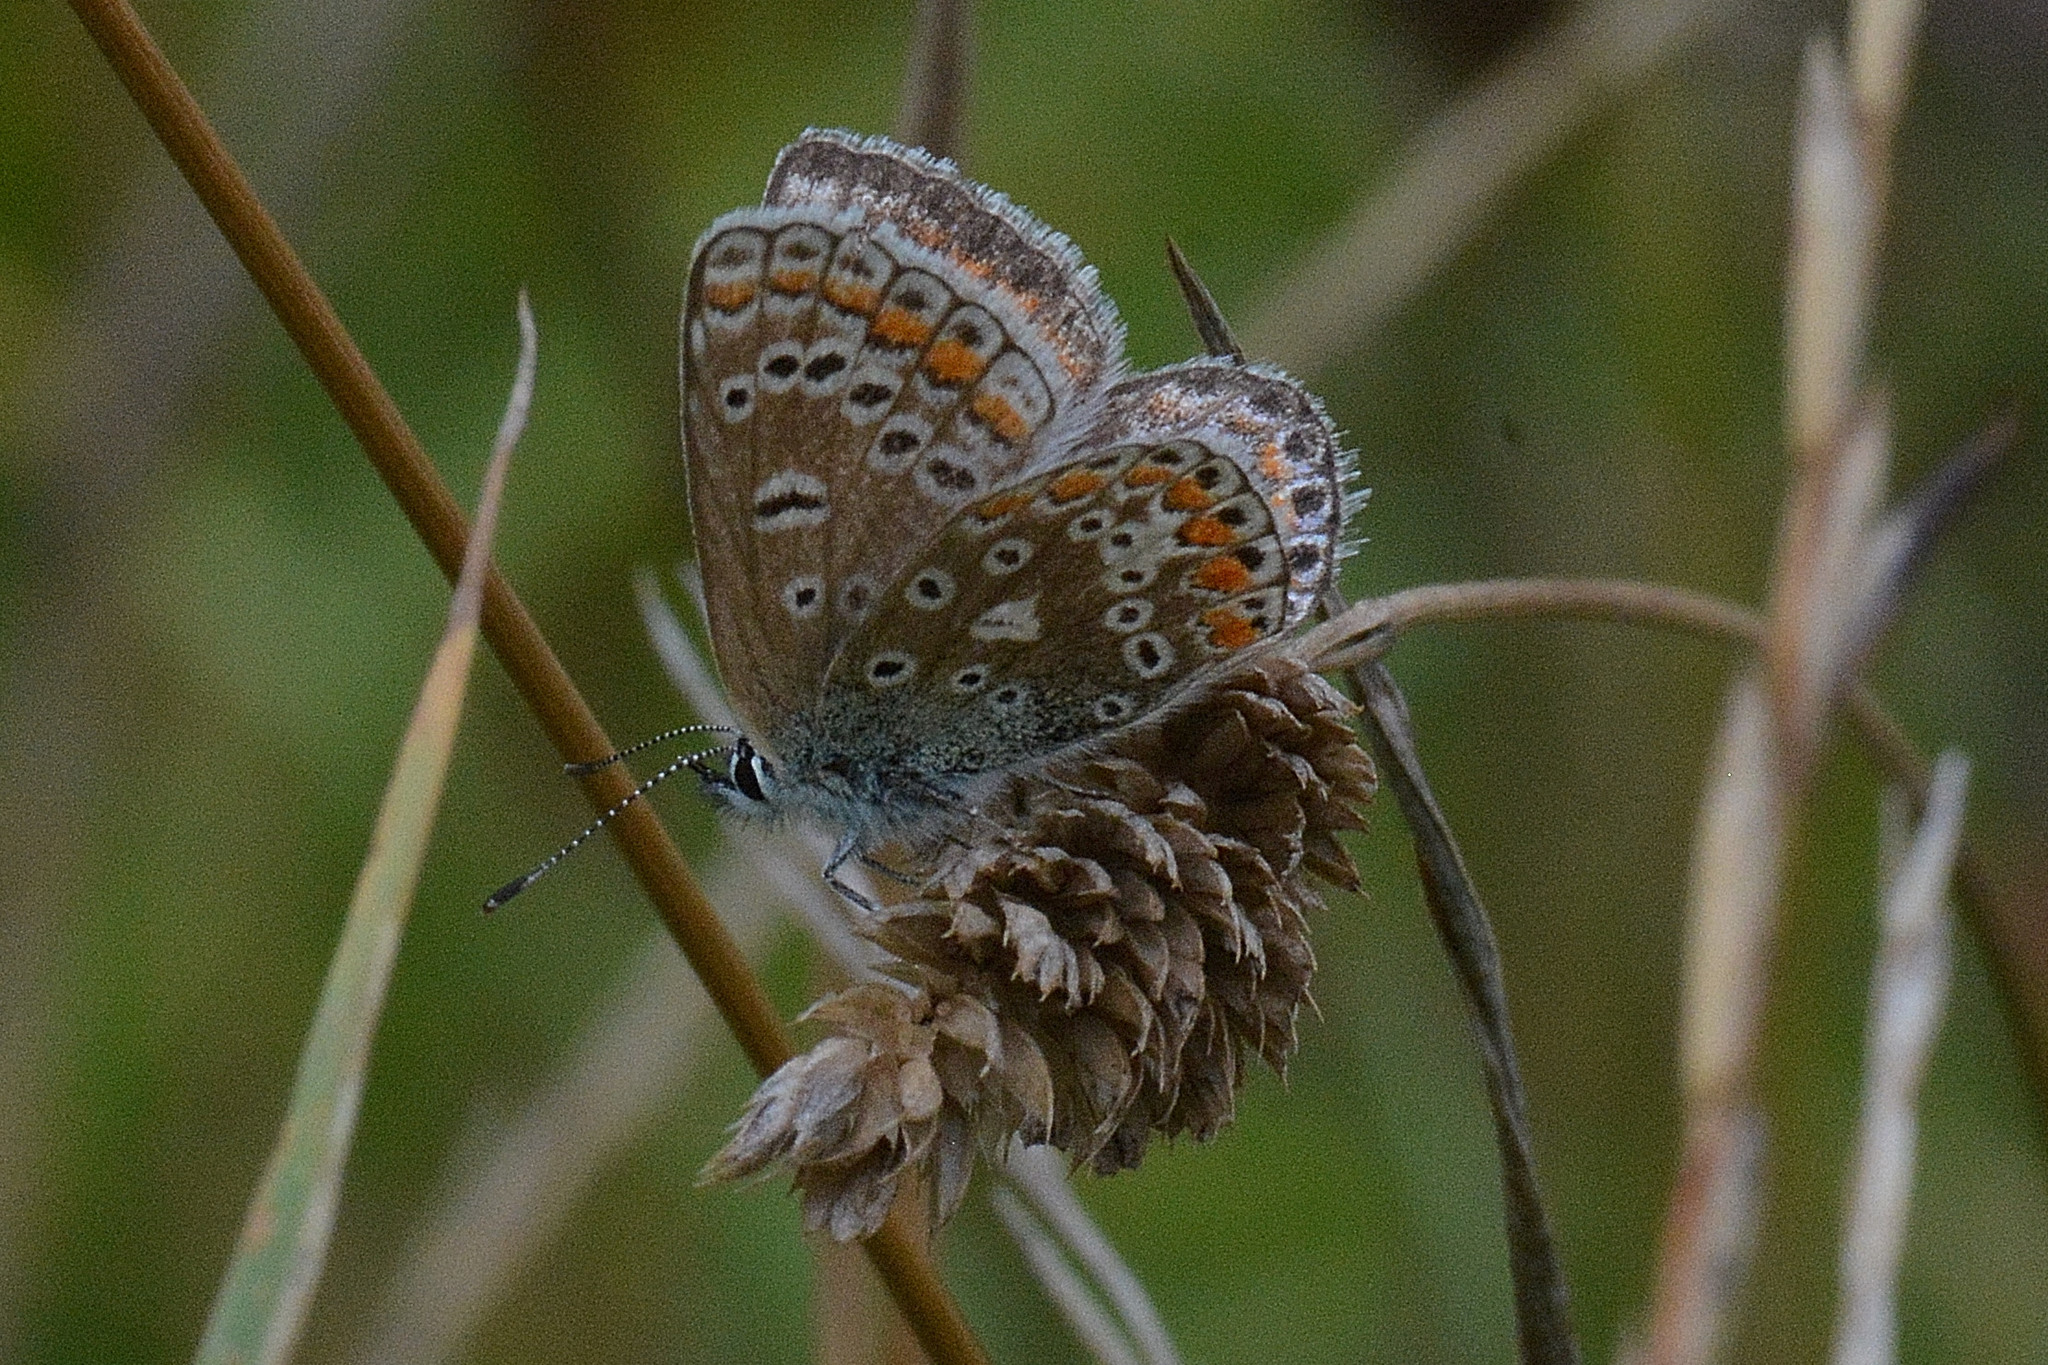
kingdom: Animalia
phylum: Arthropoda
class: Insecta
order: Lepidoptera
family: Lycaenidae
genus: Polyommatus
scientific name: Polyommatus icarus
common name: Common blue
